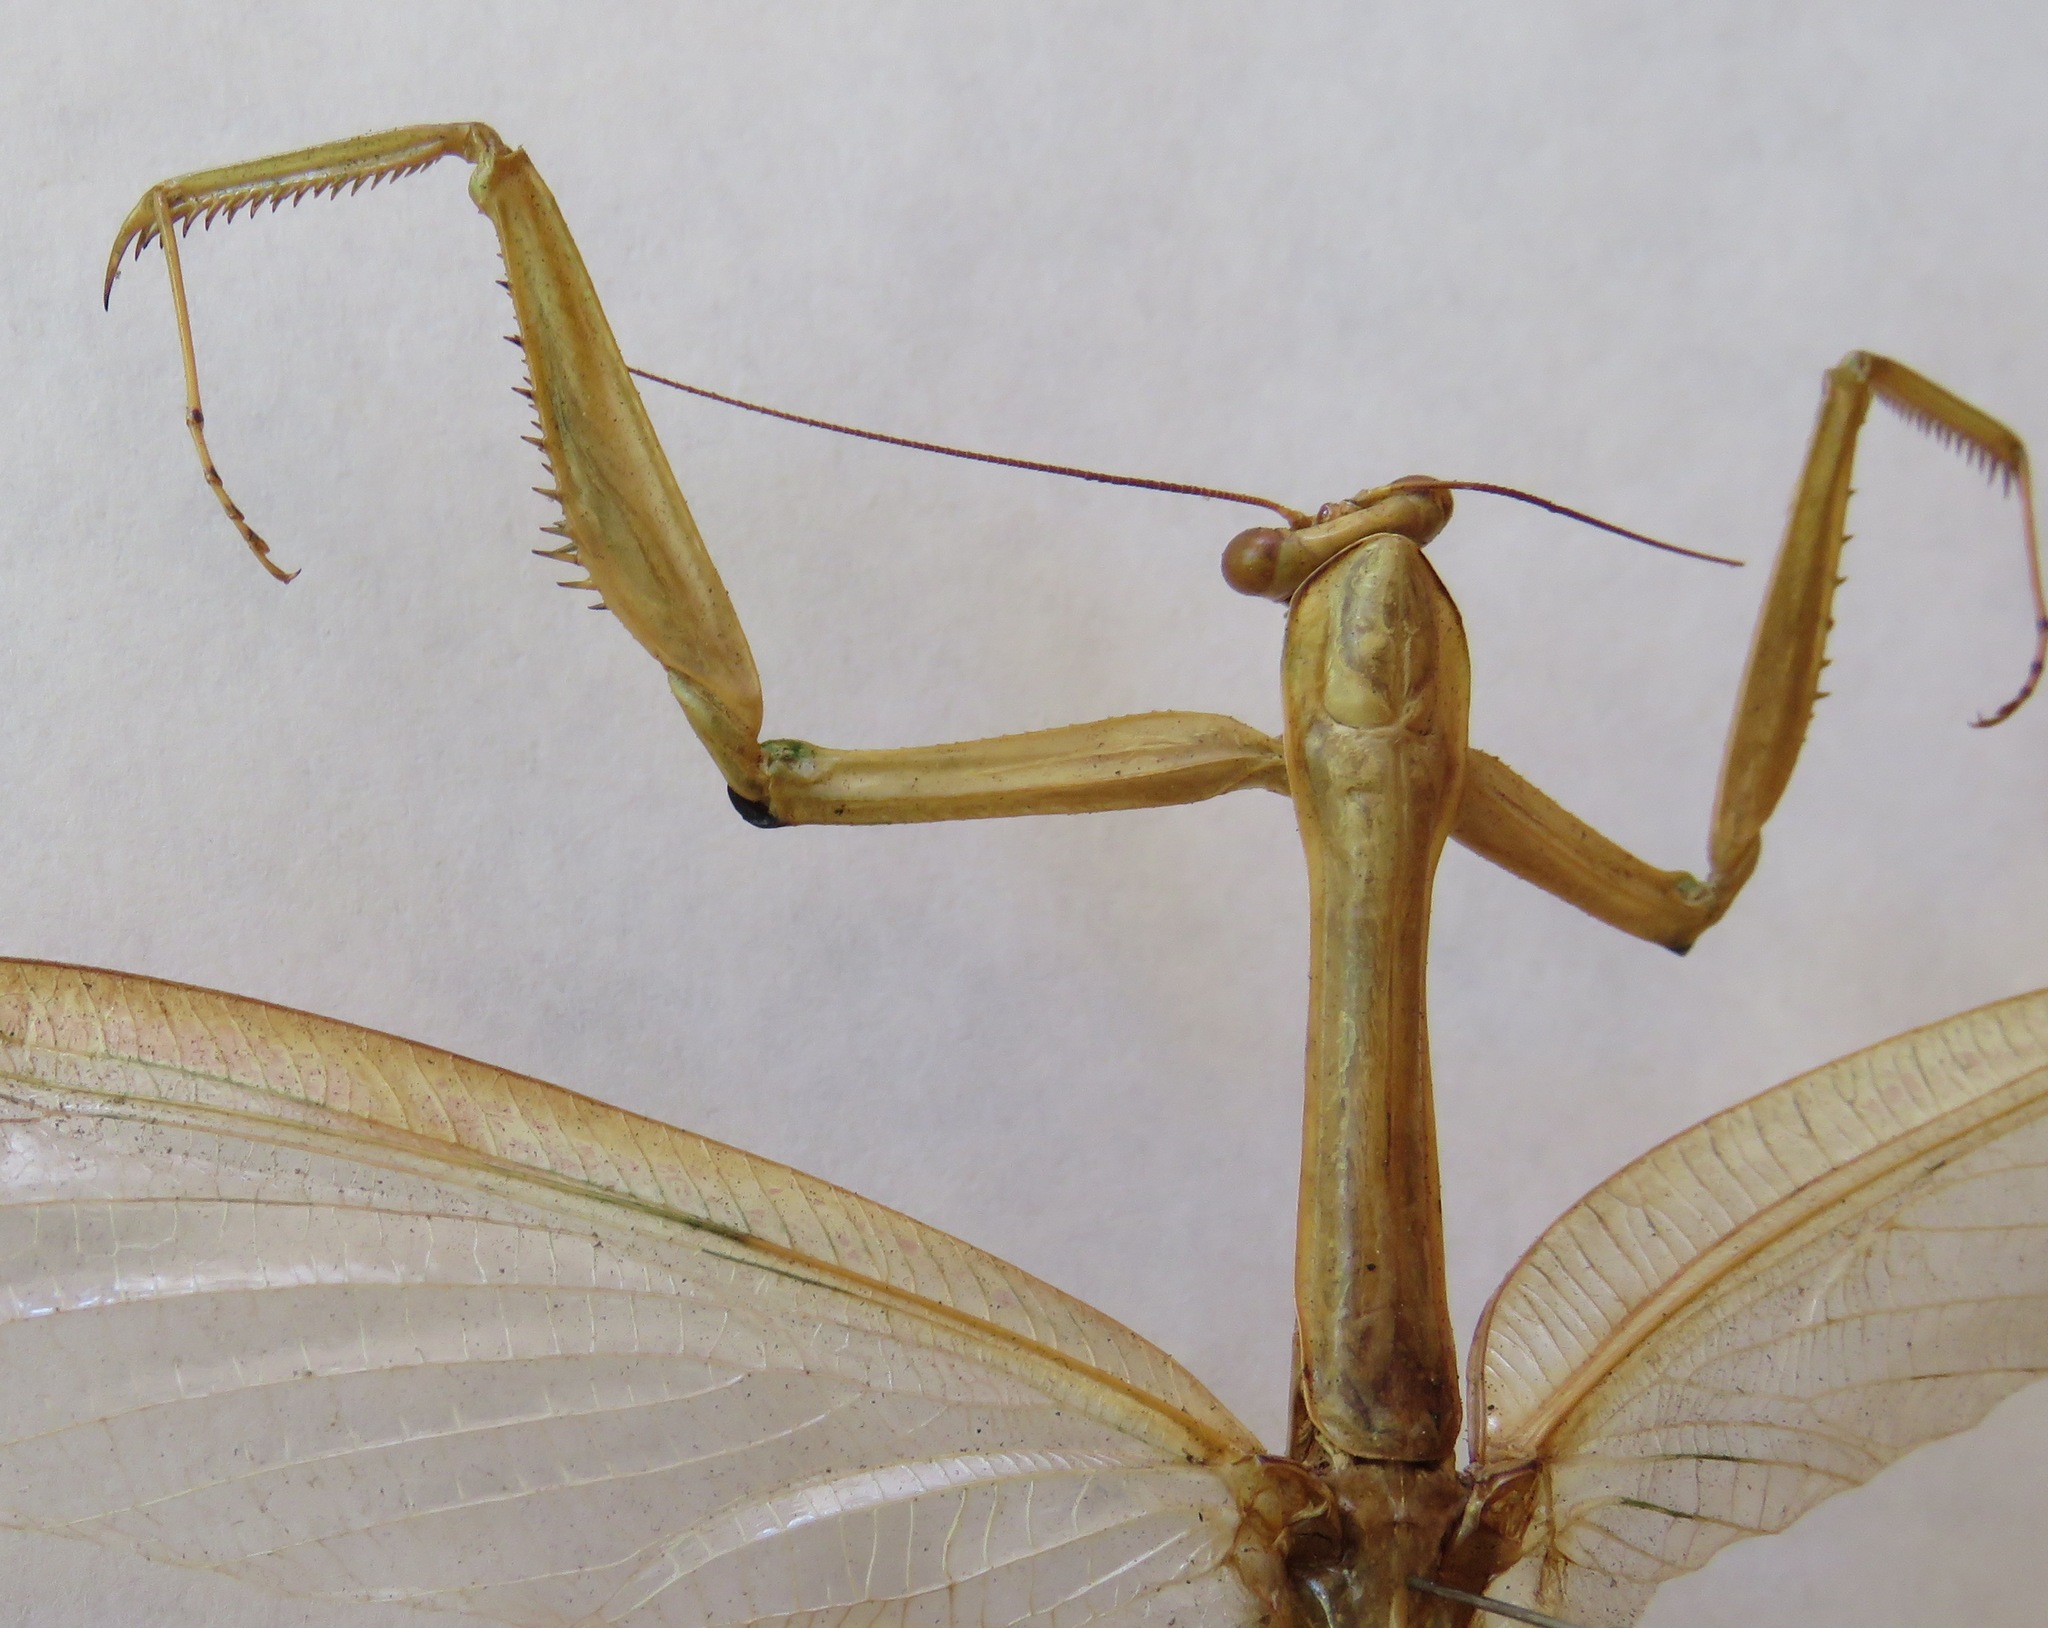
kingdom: Animalia
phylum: Arthropoda
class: Insecta
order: Mantodea
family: Photinaidae
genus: Macromantis
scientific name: Macromantis nicaraguae
